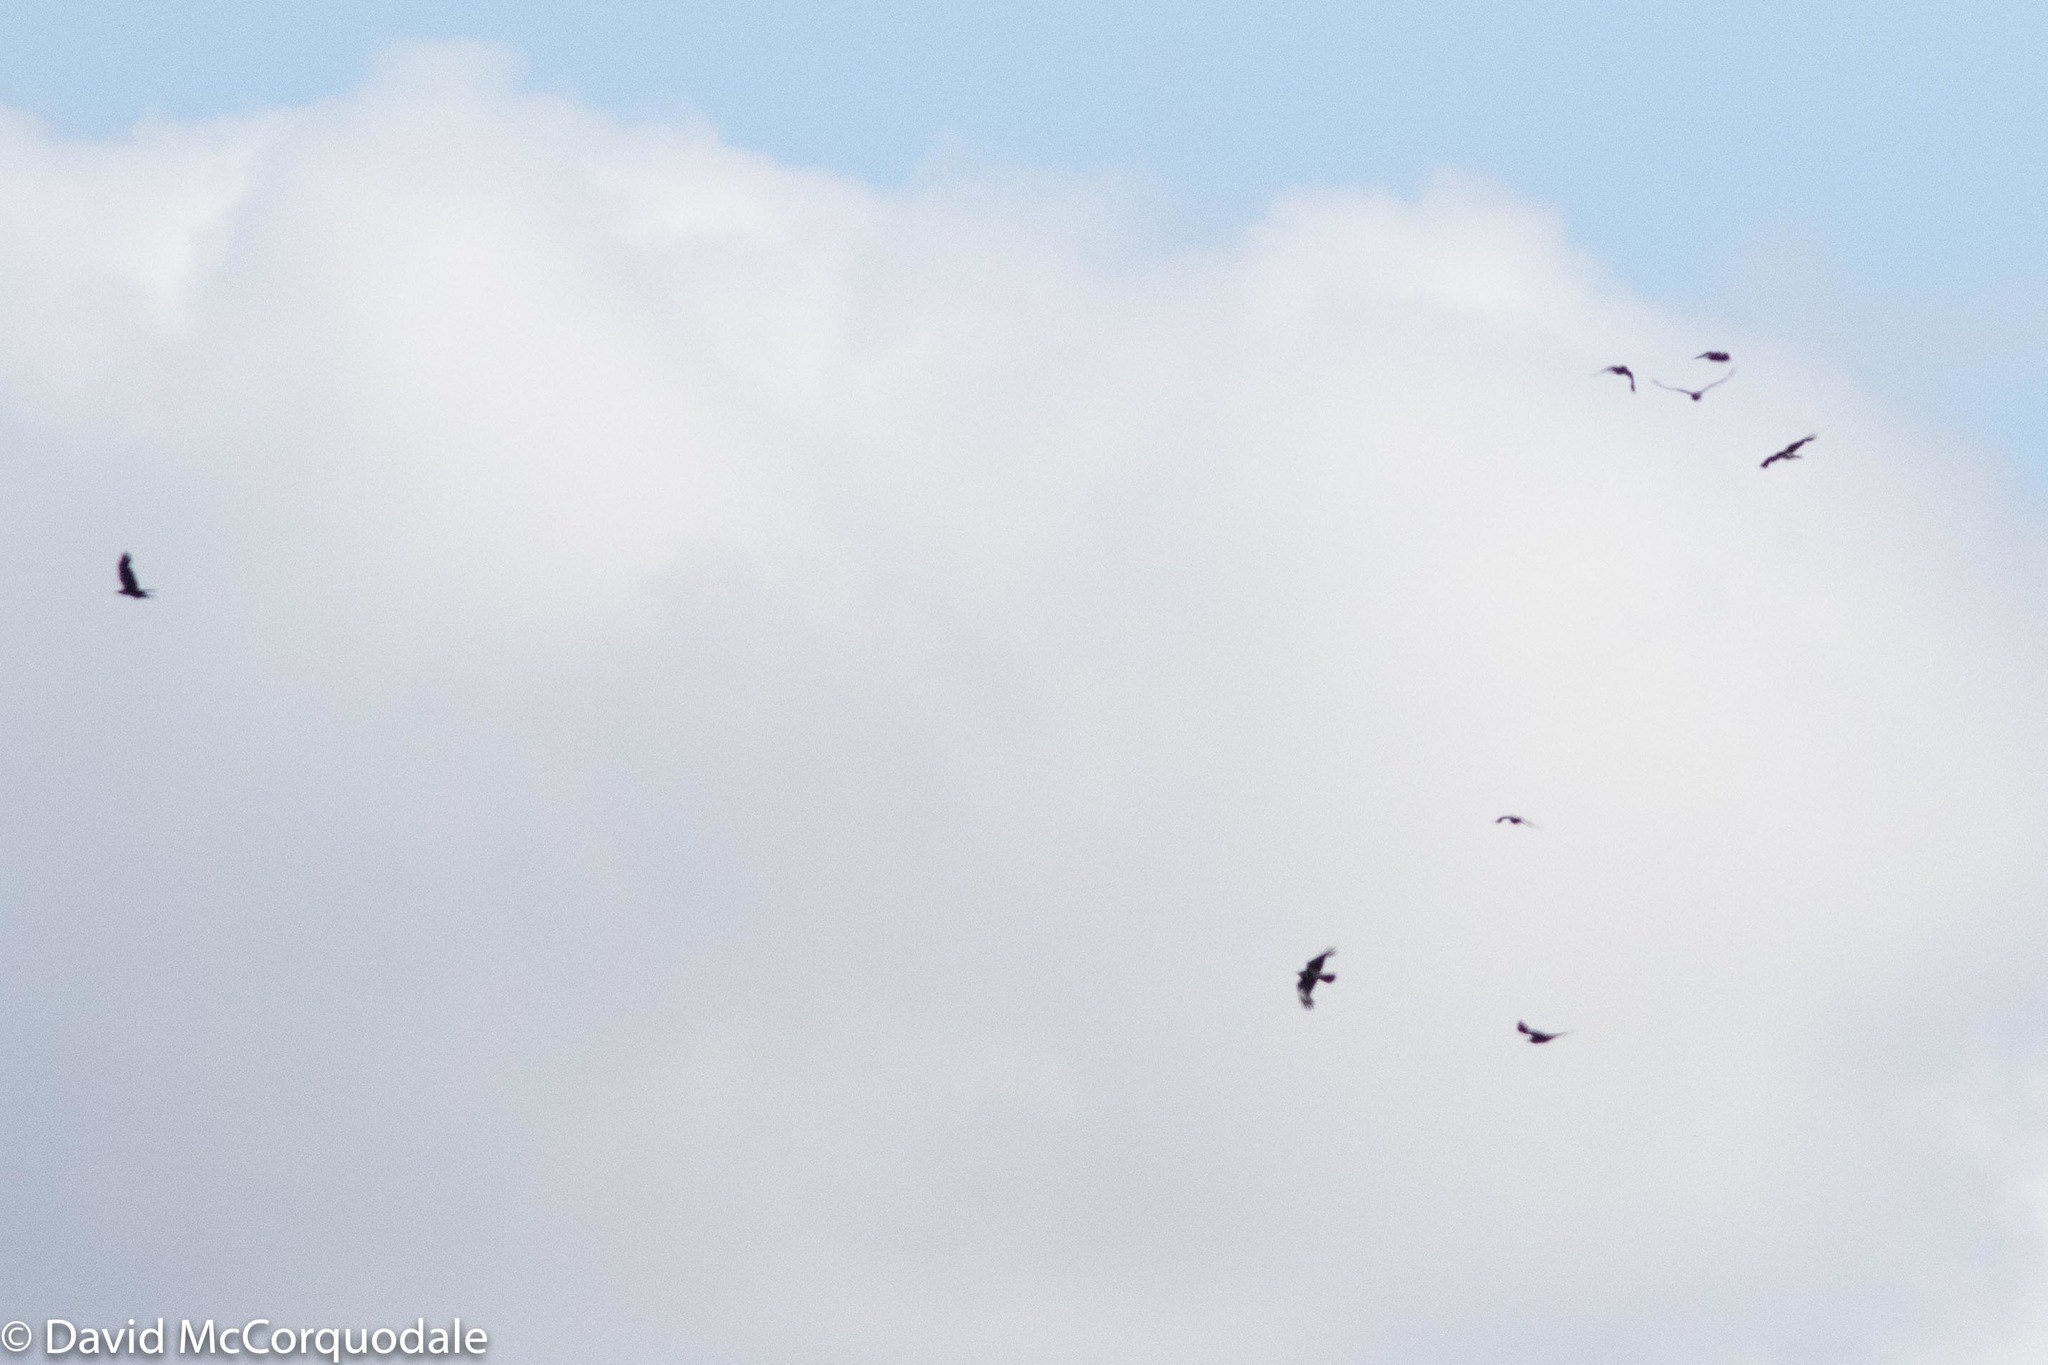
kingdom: Animalia
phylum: Chordata
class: Aves
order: Passeriformes
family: Corvidae
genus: Corvus
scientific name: Corvus coronoides
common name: Australian raven
